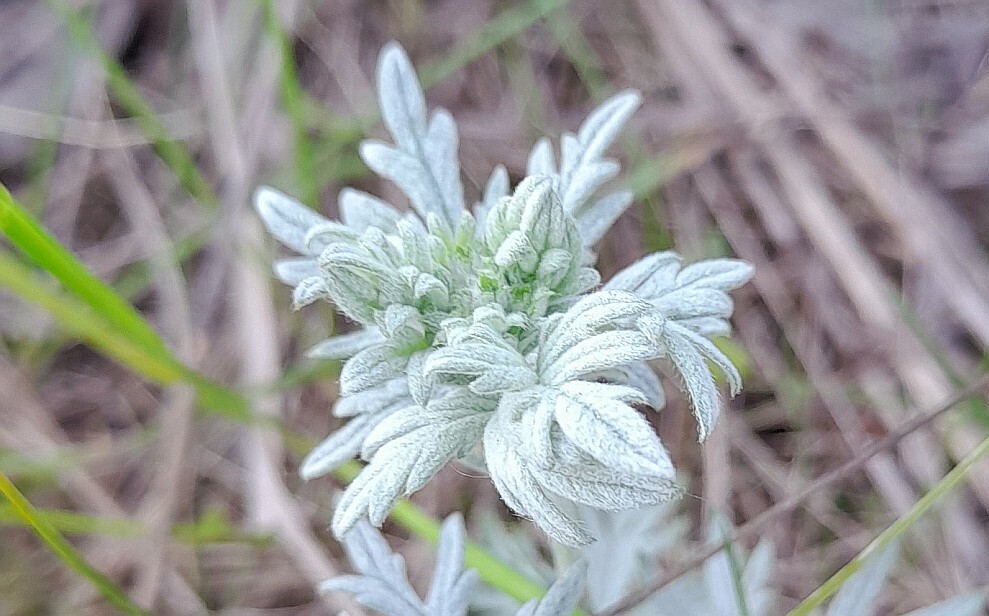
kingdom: Plantae
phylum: Tracheophyta
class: Magnoliopsida
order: Rosales
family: Rosaceae
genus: Potentilla
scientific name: Potentilla argentea
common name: Hoary cinquefoil
